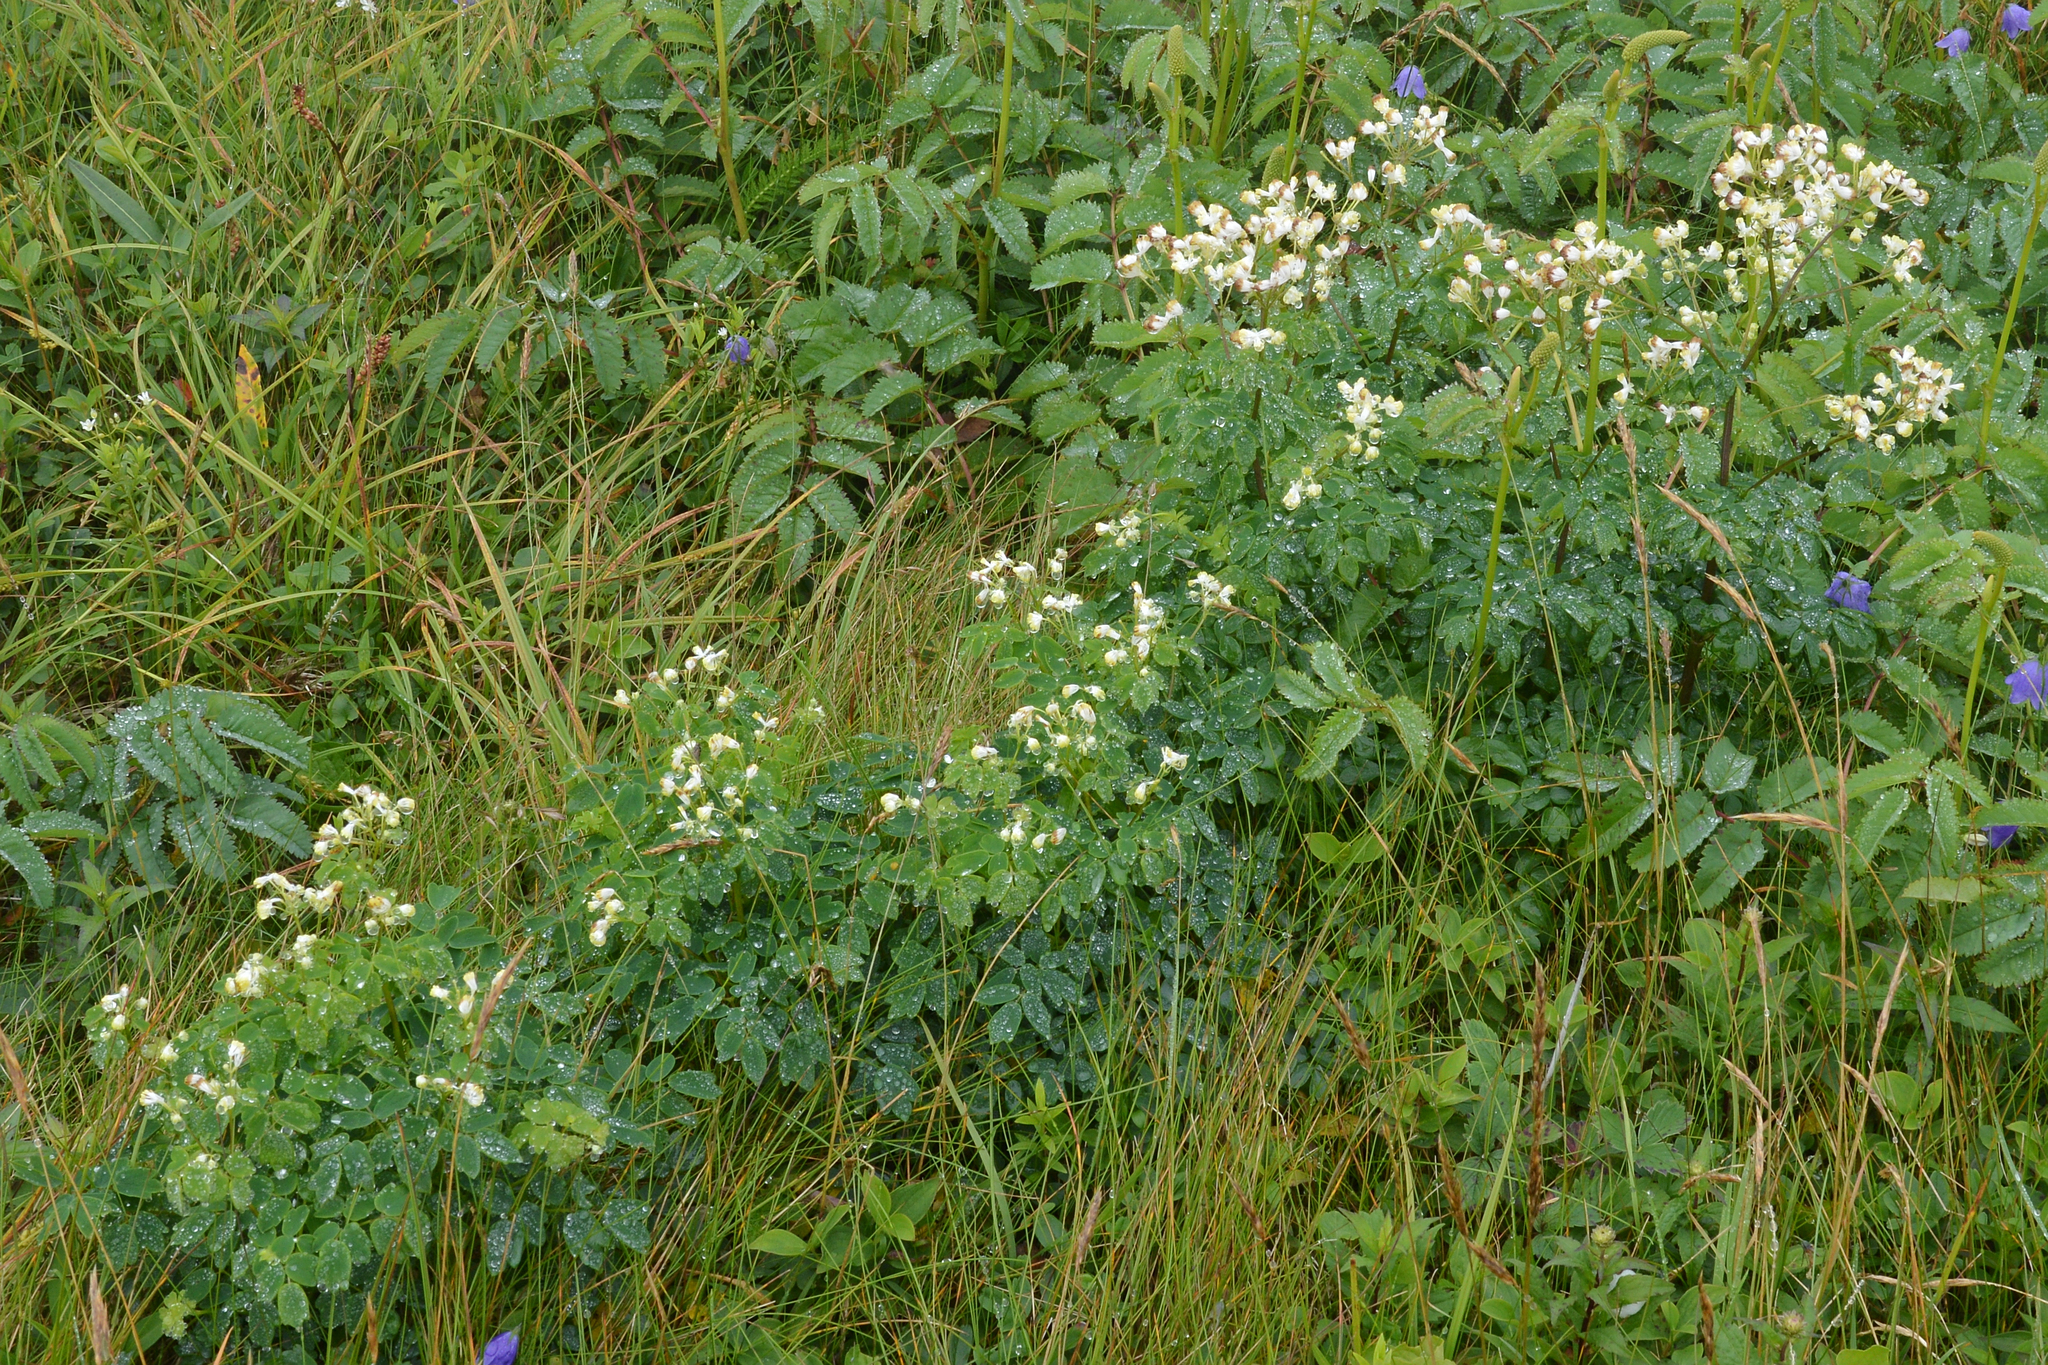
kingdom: Plantae
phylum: Tracheophyta
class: Magnoliopsida
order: Ranunculales
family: Ranunculaceae
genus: Thalictrum
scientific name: Thalictrum pubescens
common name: King-of-the-meadow
